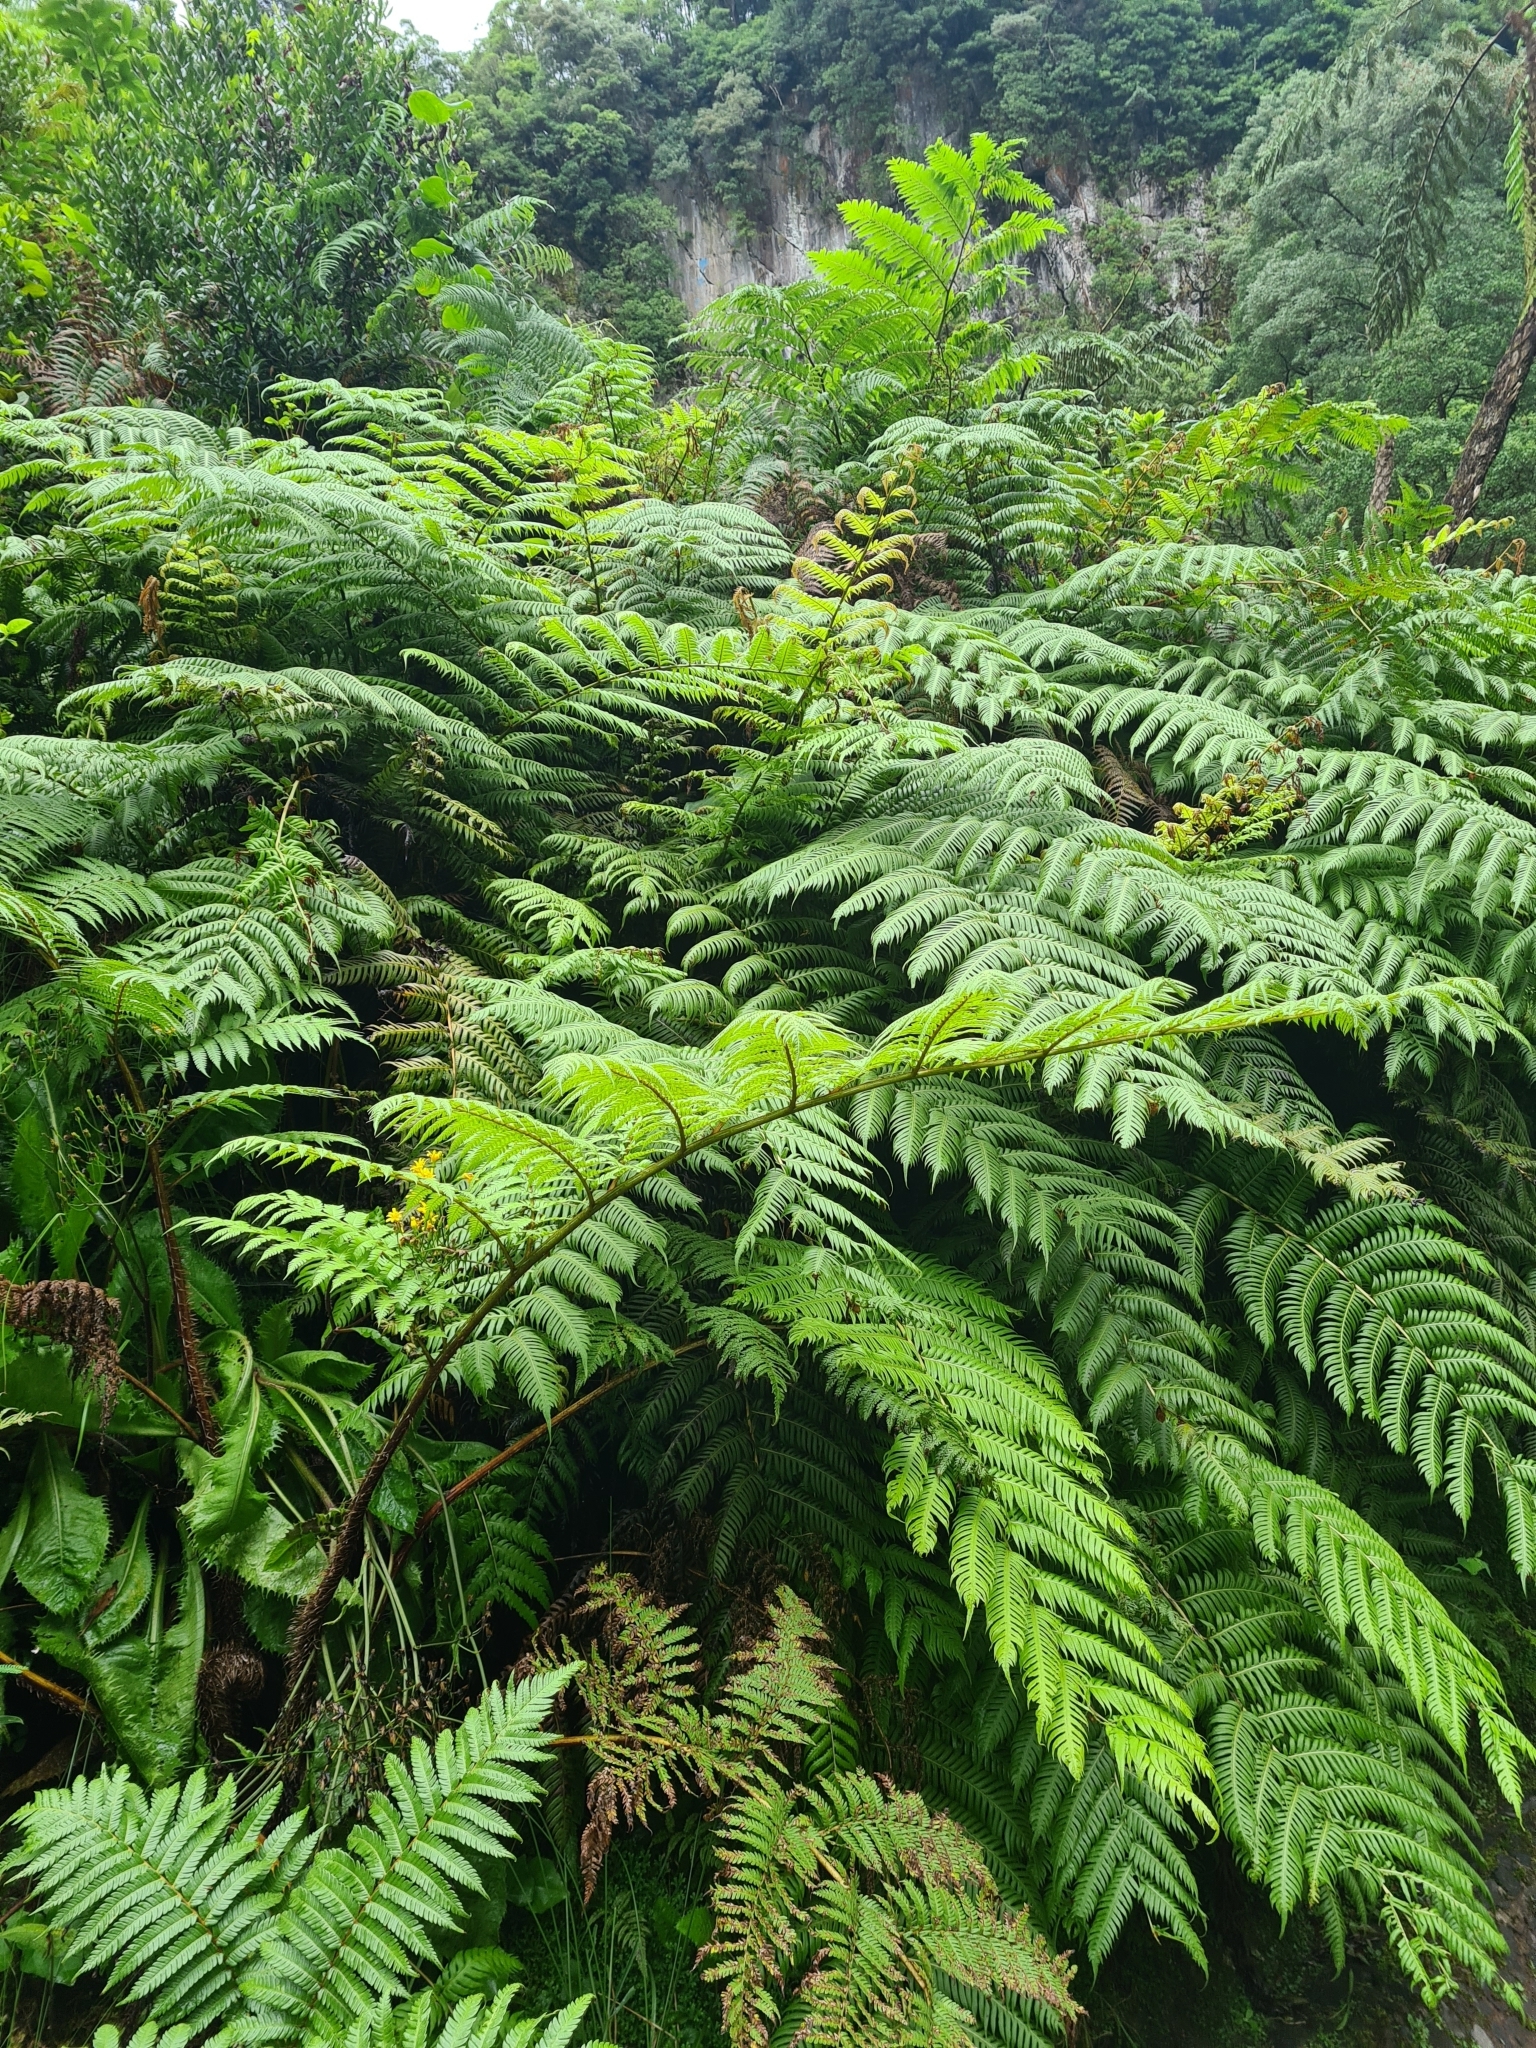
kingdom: Plantae
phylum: Tracheophyta
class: Polypodiopsida
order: Cyatheales
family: Cyatheaceae
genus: Sphaeropteris
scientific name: Sphaeropteris cooperi
